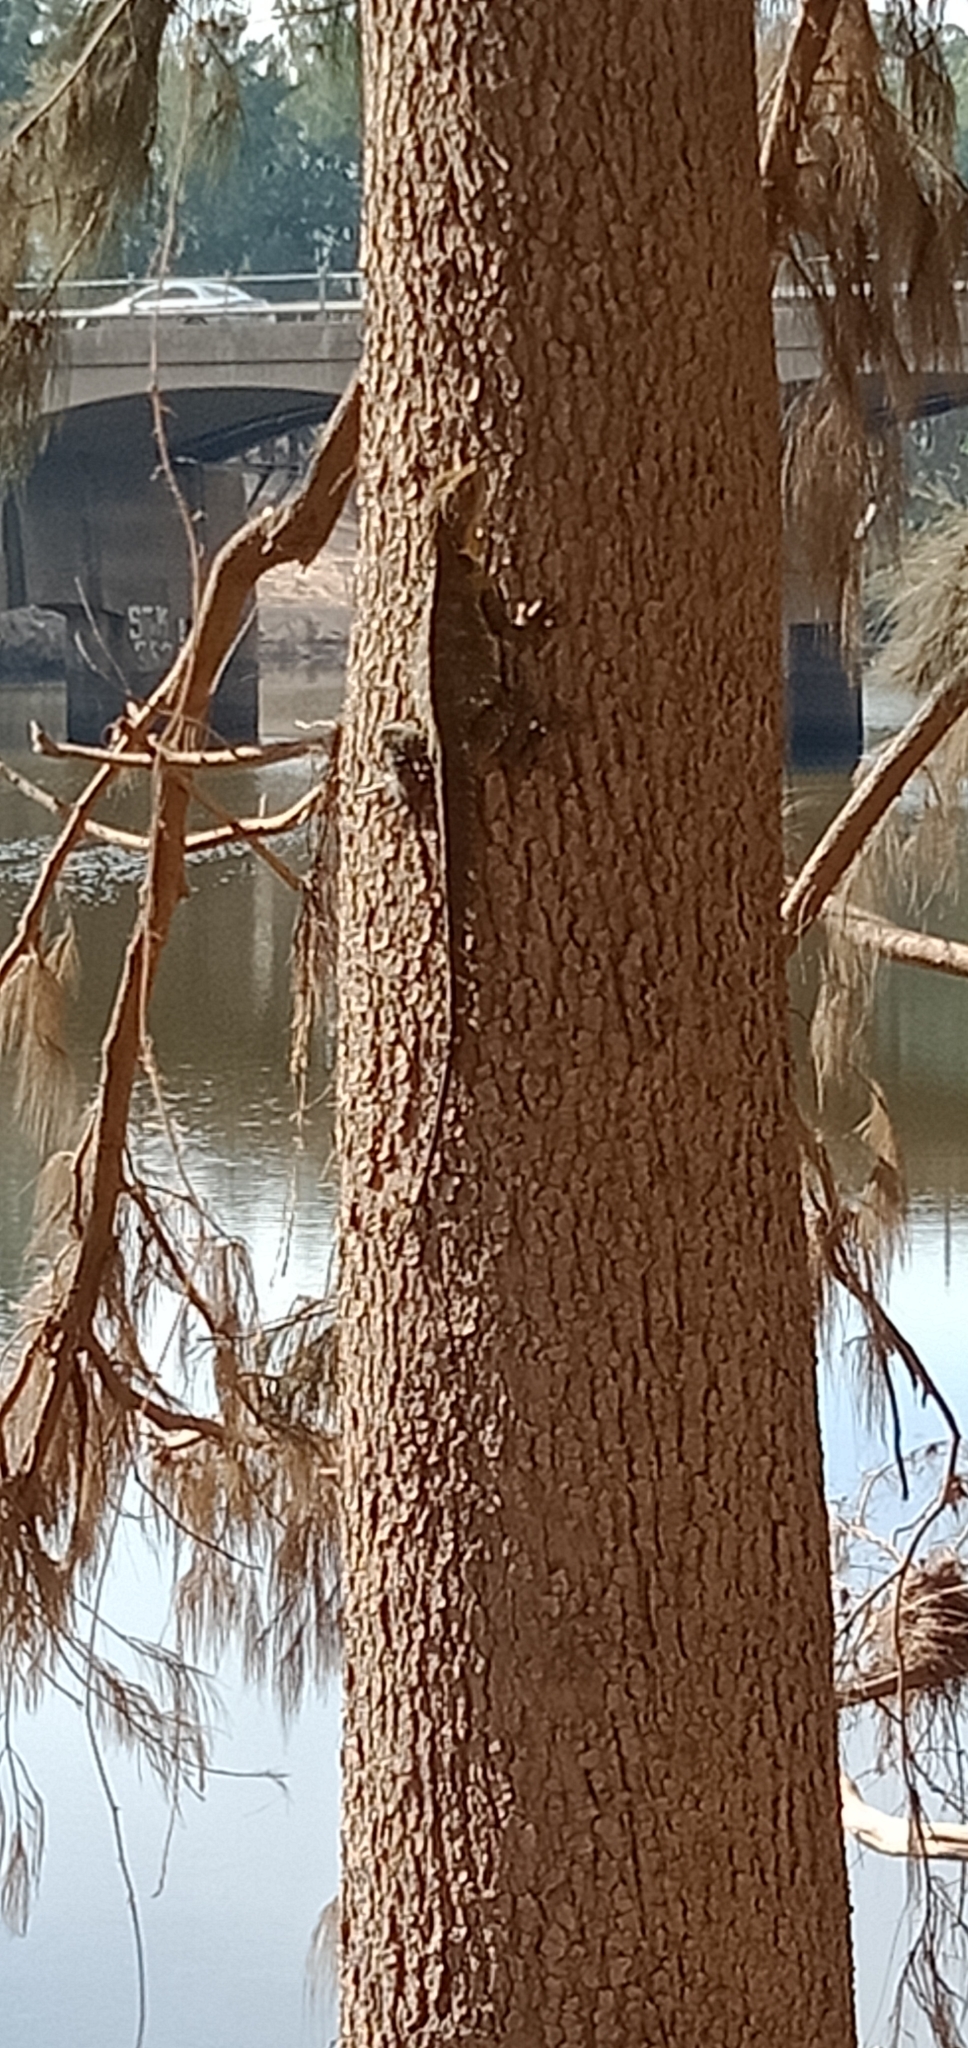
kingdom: Animalia
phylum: Chordata
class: Squamata
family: Agamidae
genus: Intellagama
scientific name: Intellagama lesueurii
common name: Eastern water dragon
